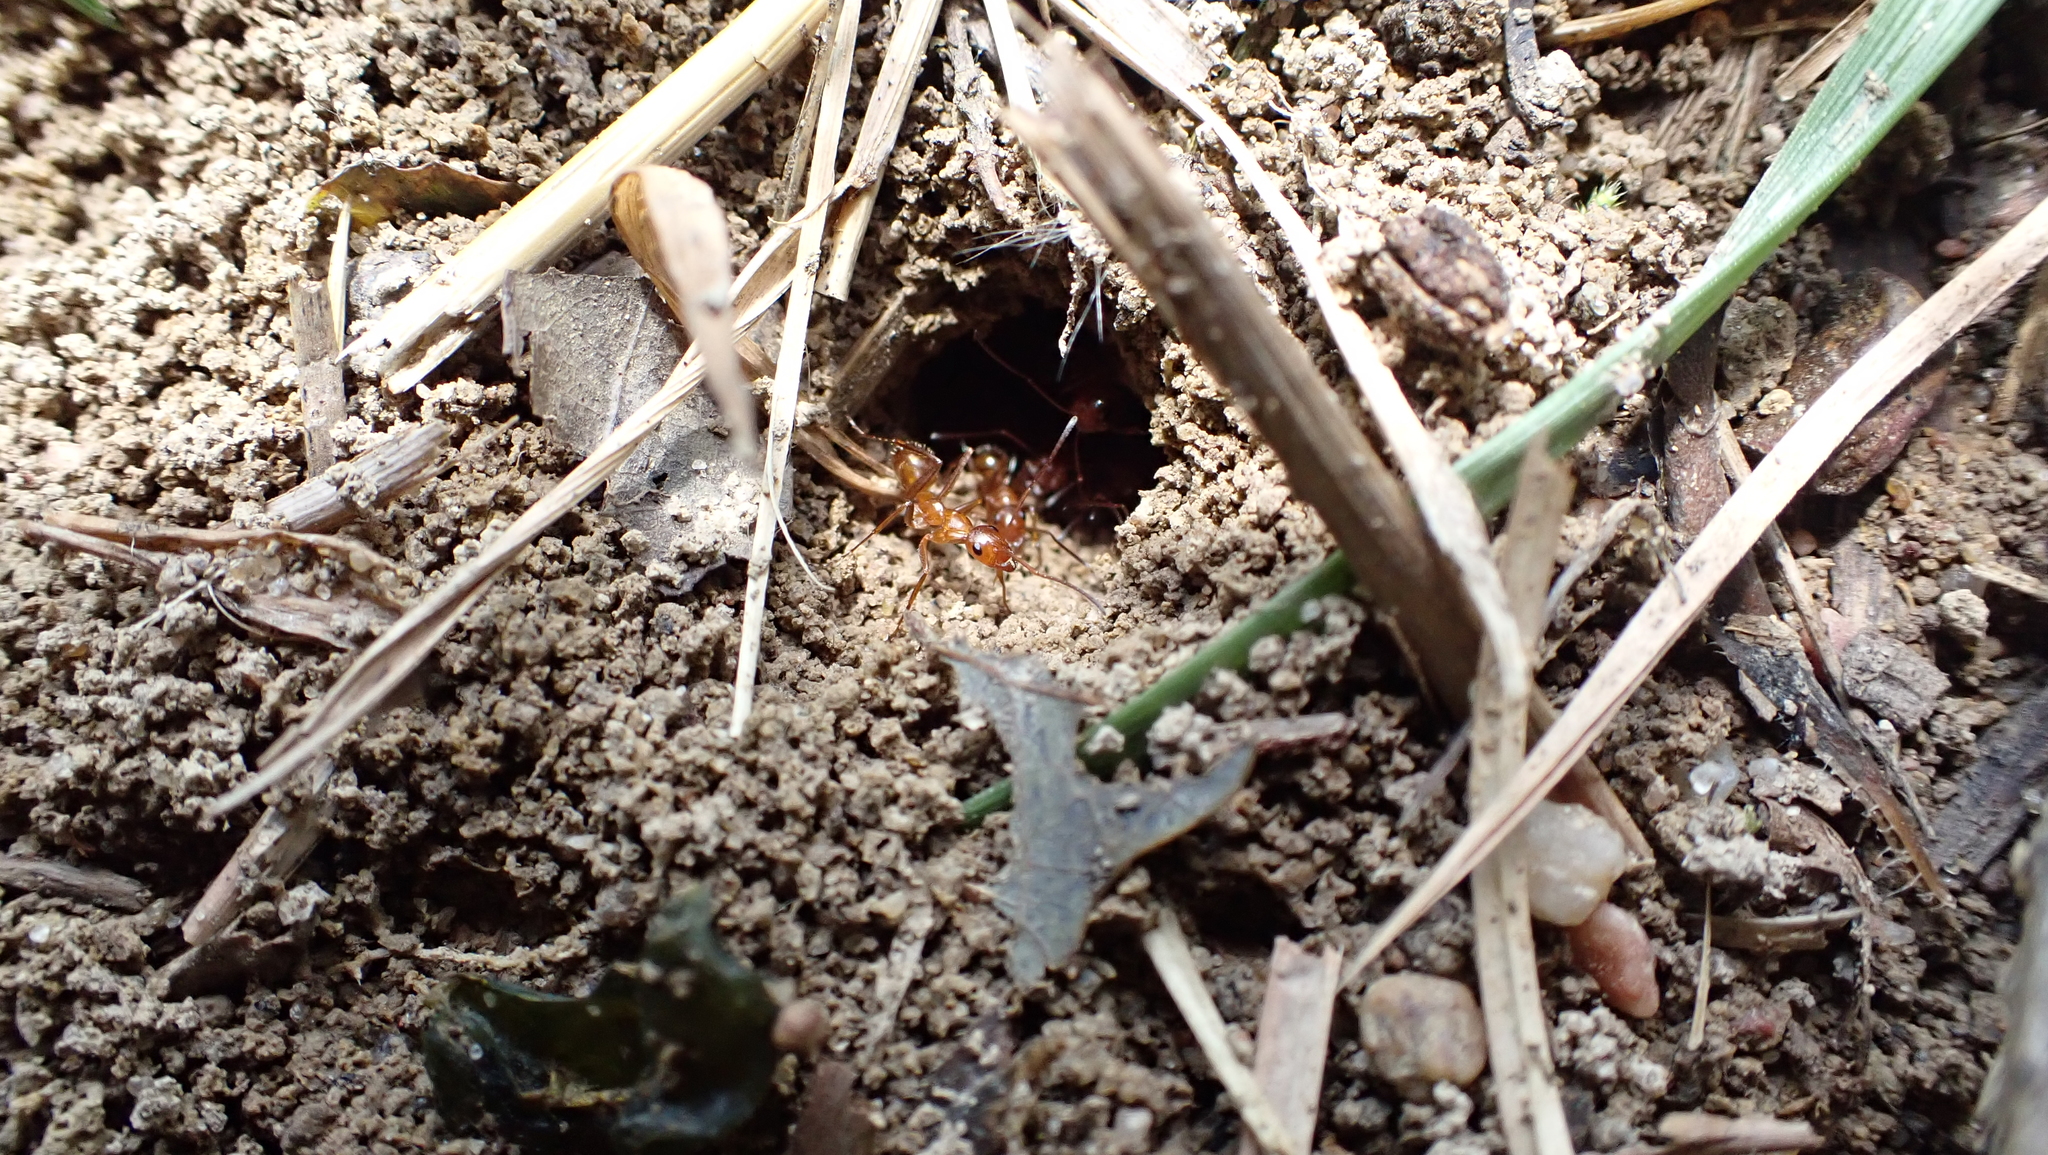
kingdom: Animalia
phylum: Arthropoda
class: Insecta
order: Hymenoptera
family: Formicidae
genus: Formica
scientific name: Formica pallidefulva
